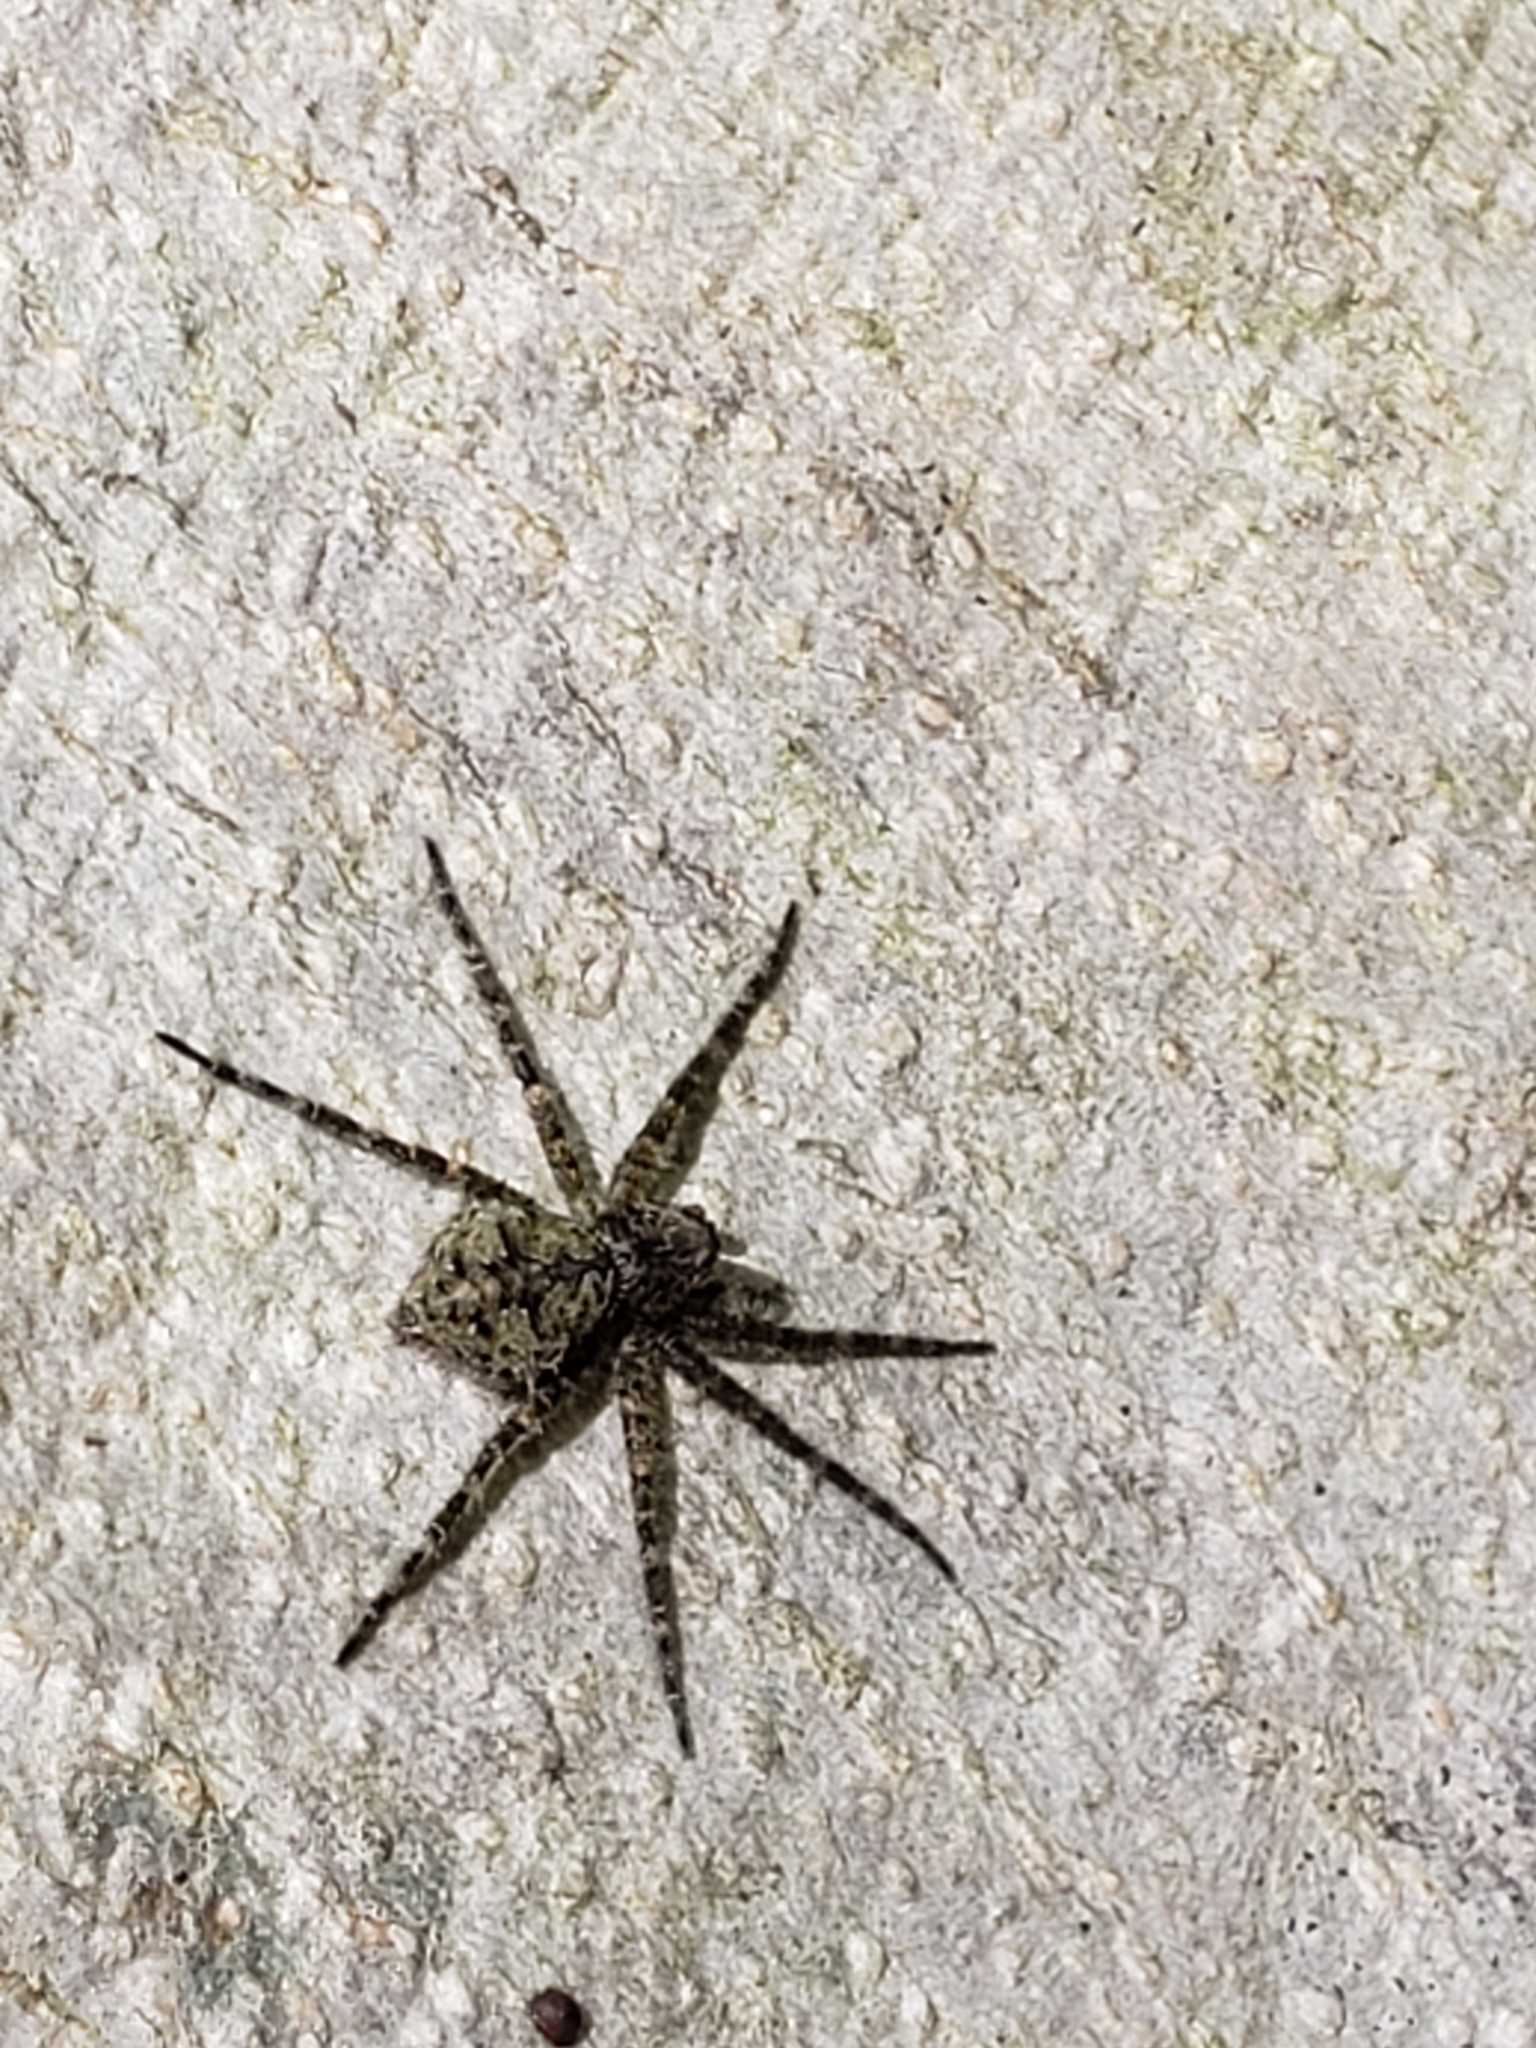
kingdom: Animalia
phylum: Arthropoda
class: Arachnida
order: Araneae
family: Pisauridae
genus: Dolomedes
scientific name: Dolomedes albineus
